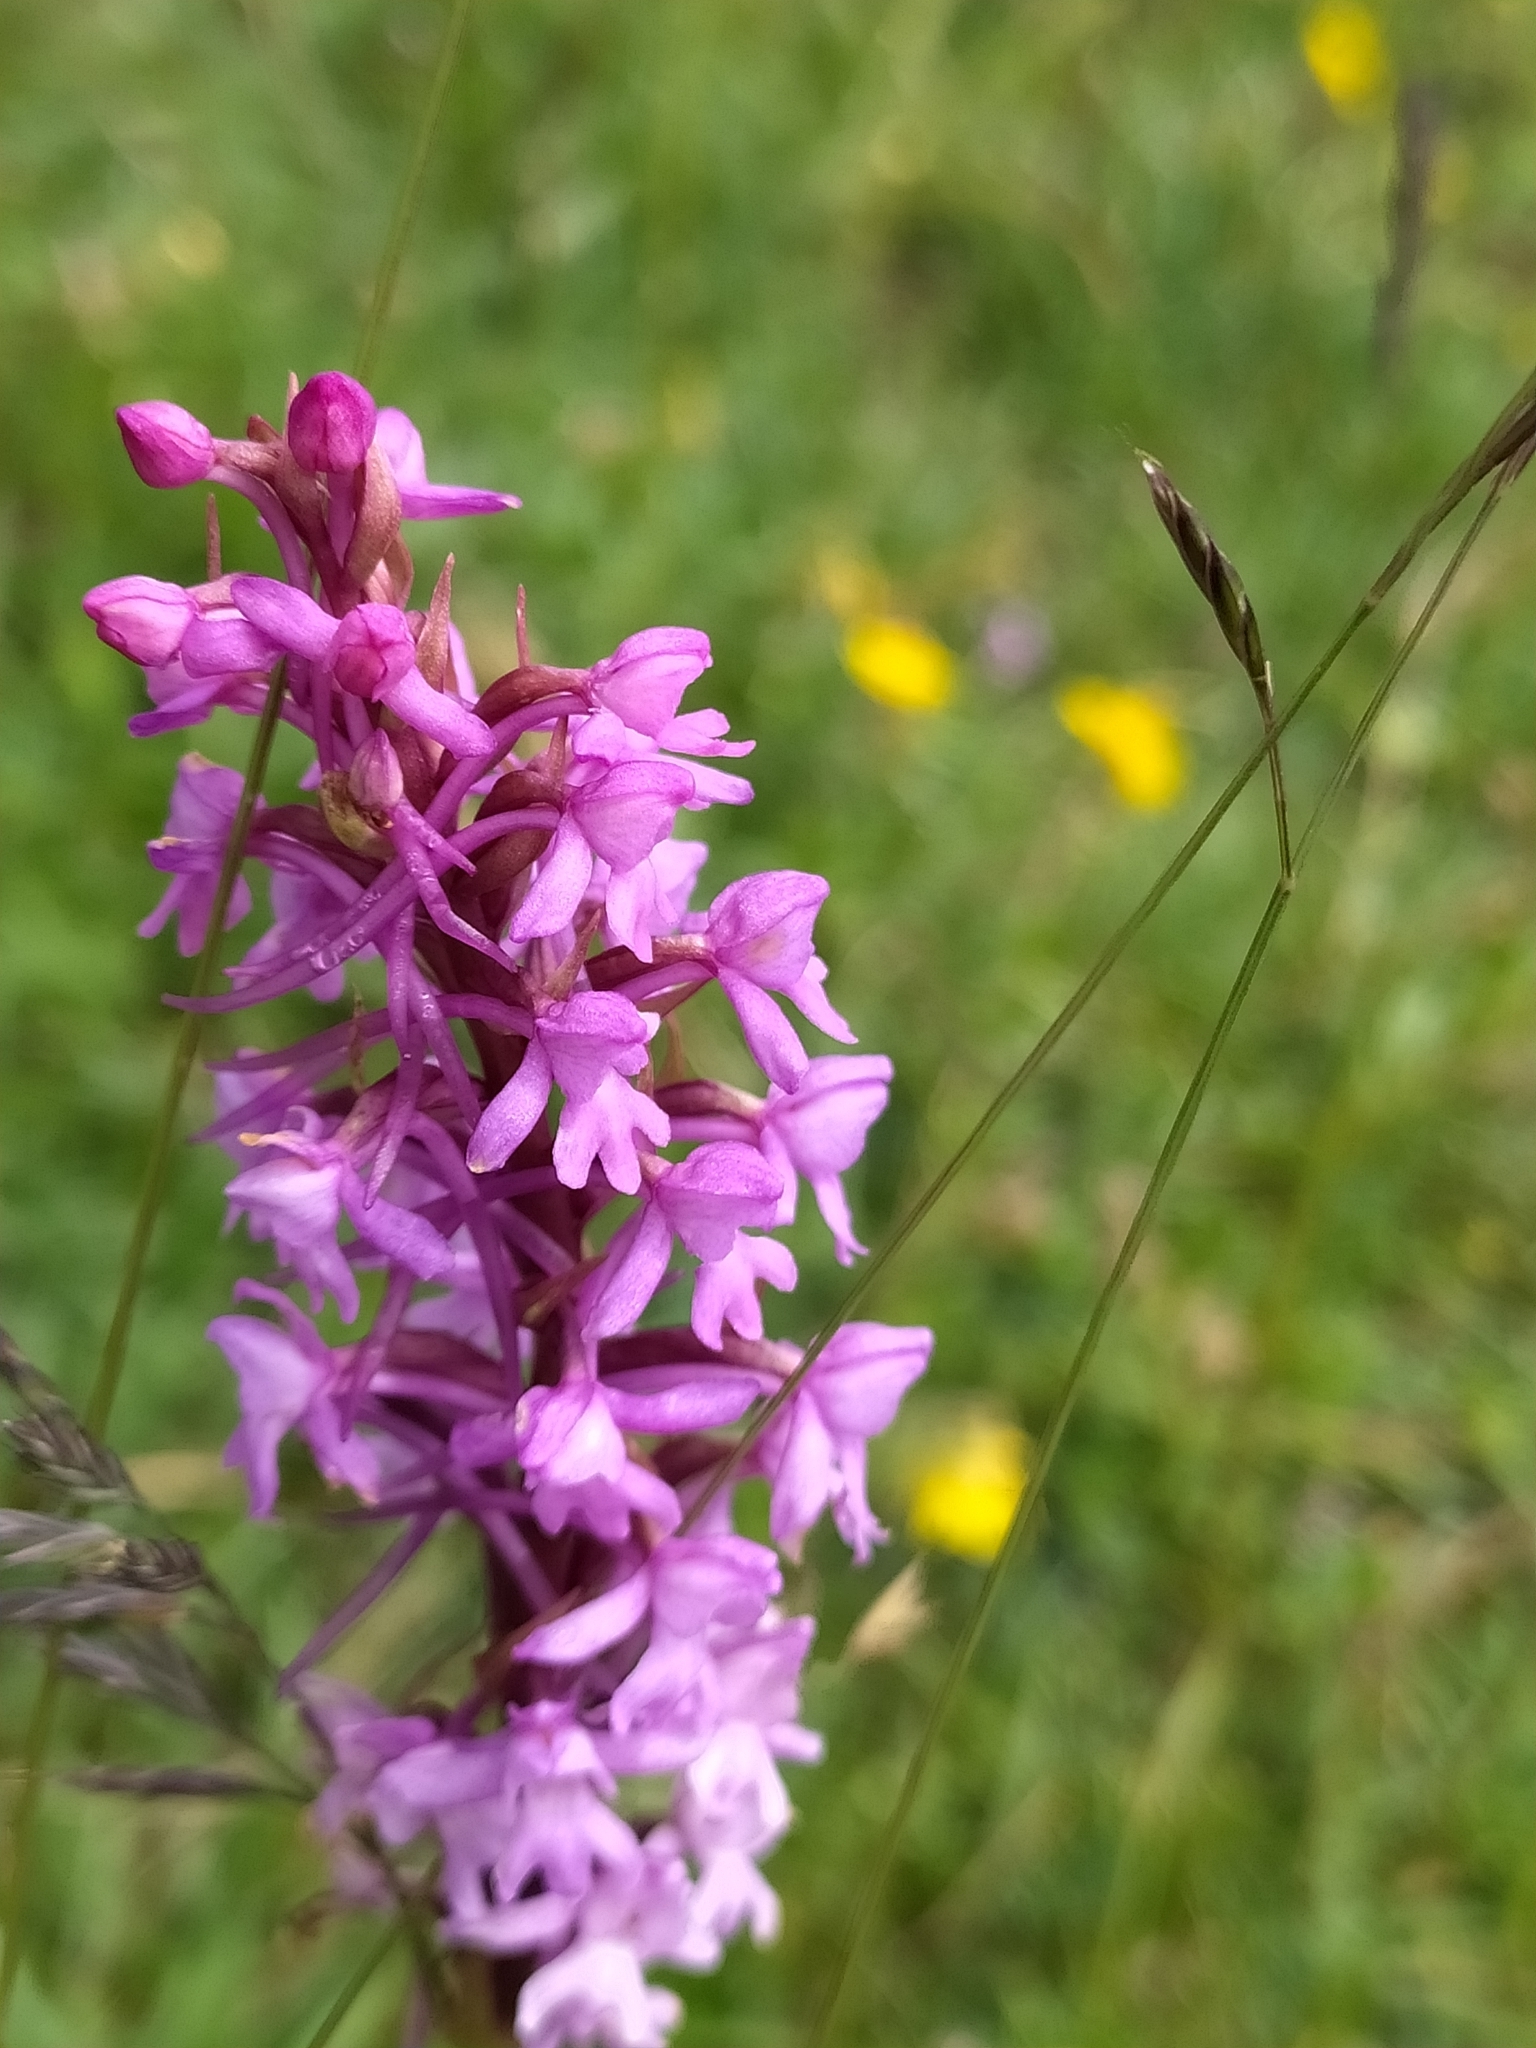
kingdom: Plantae
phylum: Tracheophyta
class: Liliopsida
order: Asparagales
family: Orchidaceae
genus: Gymnadenia
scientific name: Gymnadenia conopsea
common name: Fragrant orchid
